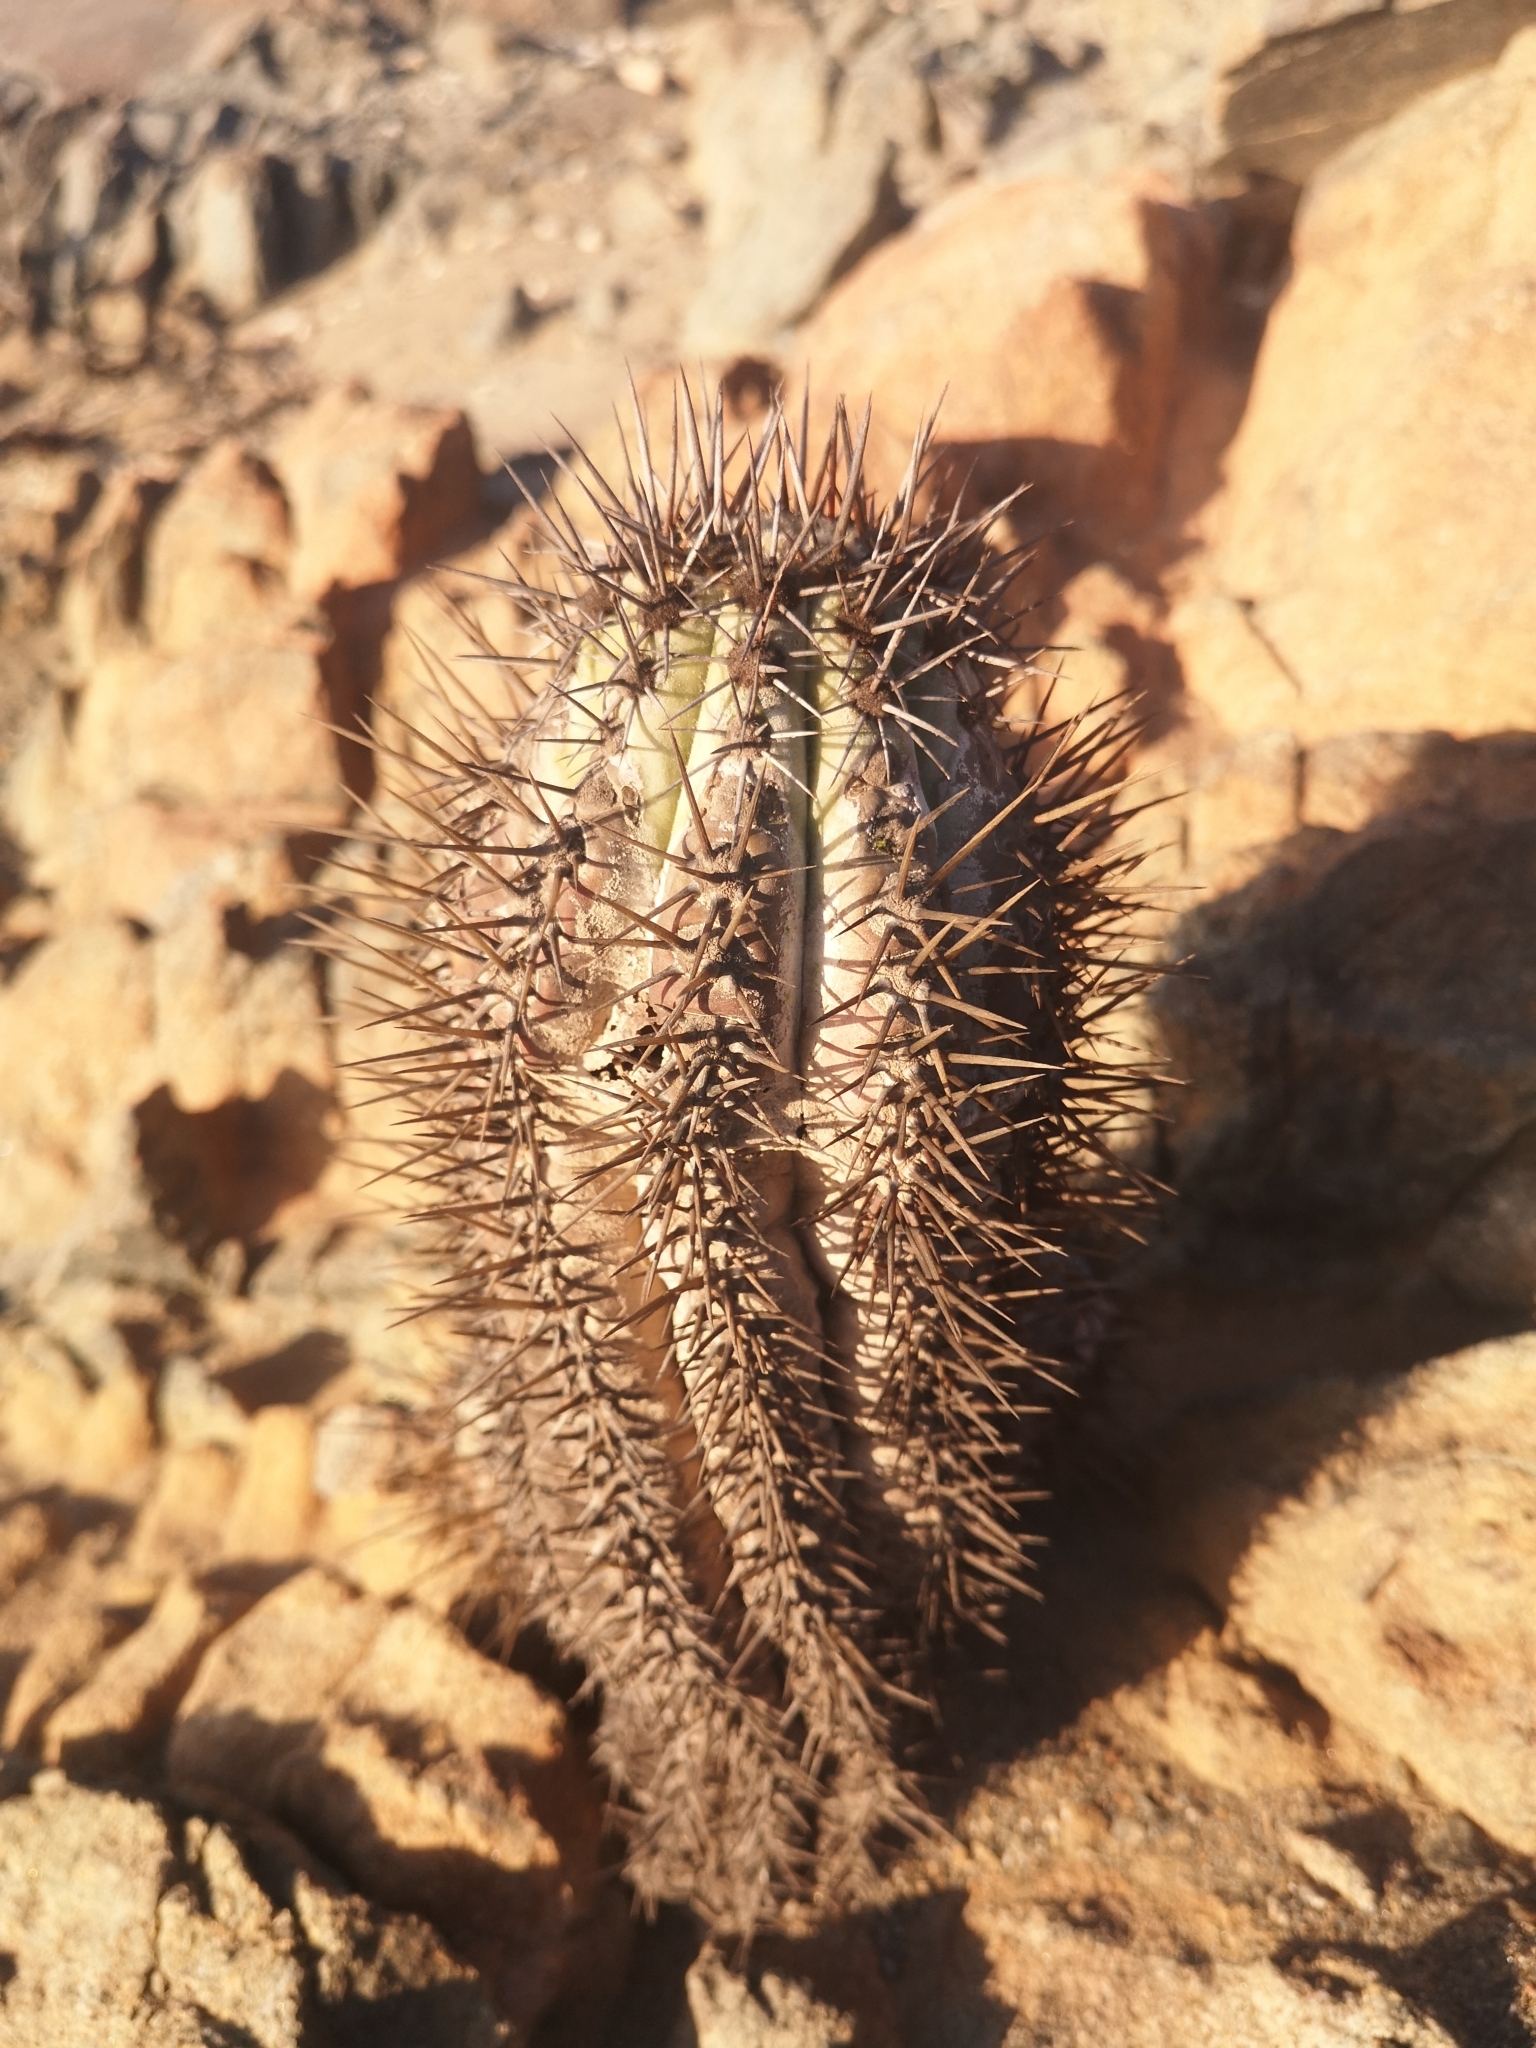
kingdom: Plantae
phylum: Tracheophyta
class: Magnoliopsida
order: Caryophyllales
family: Cactaceae
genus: Copiapoa
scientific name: Copiapoa boliviana
